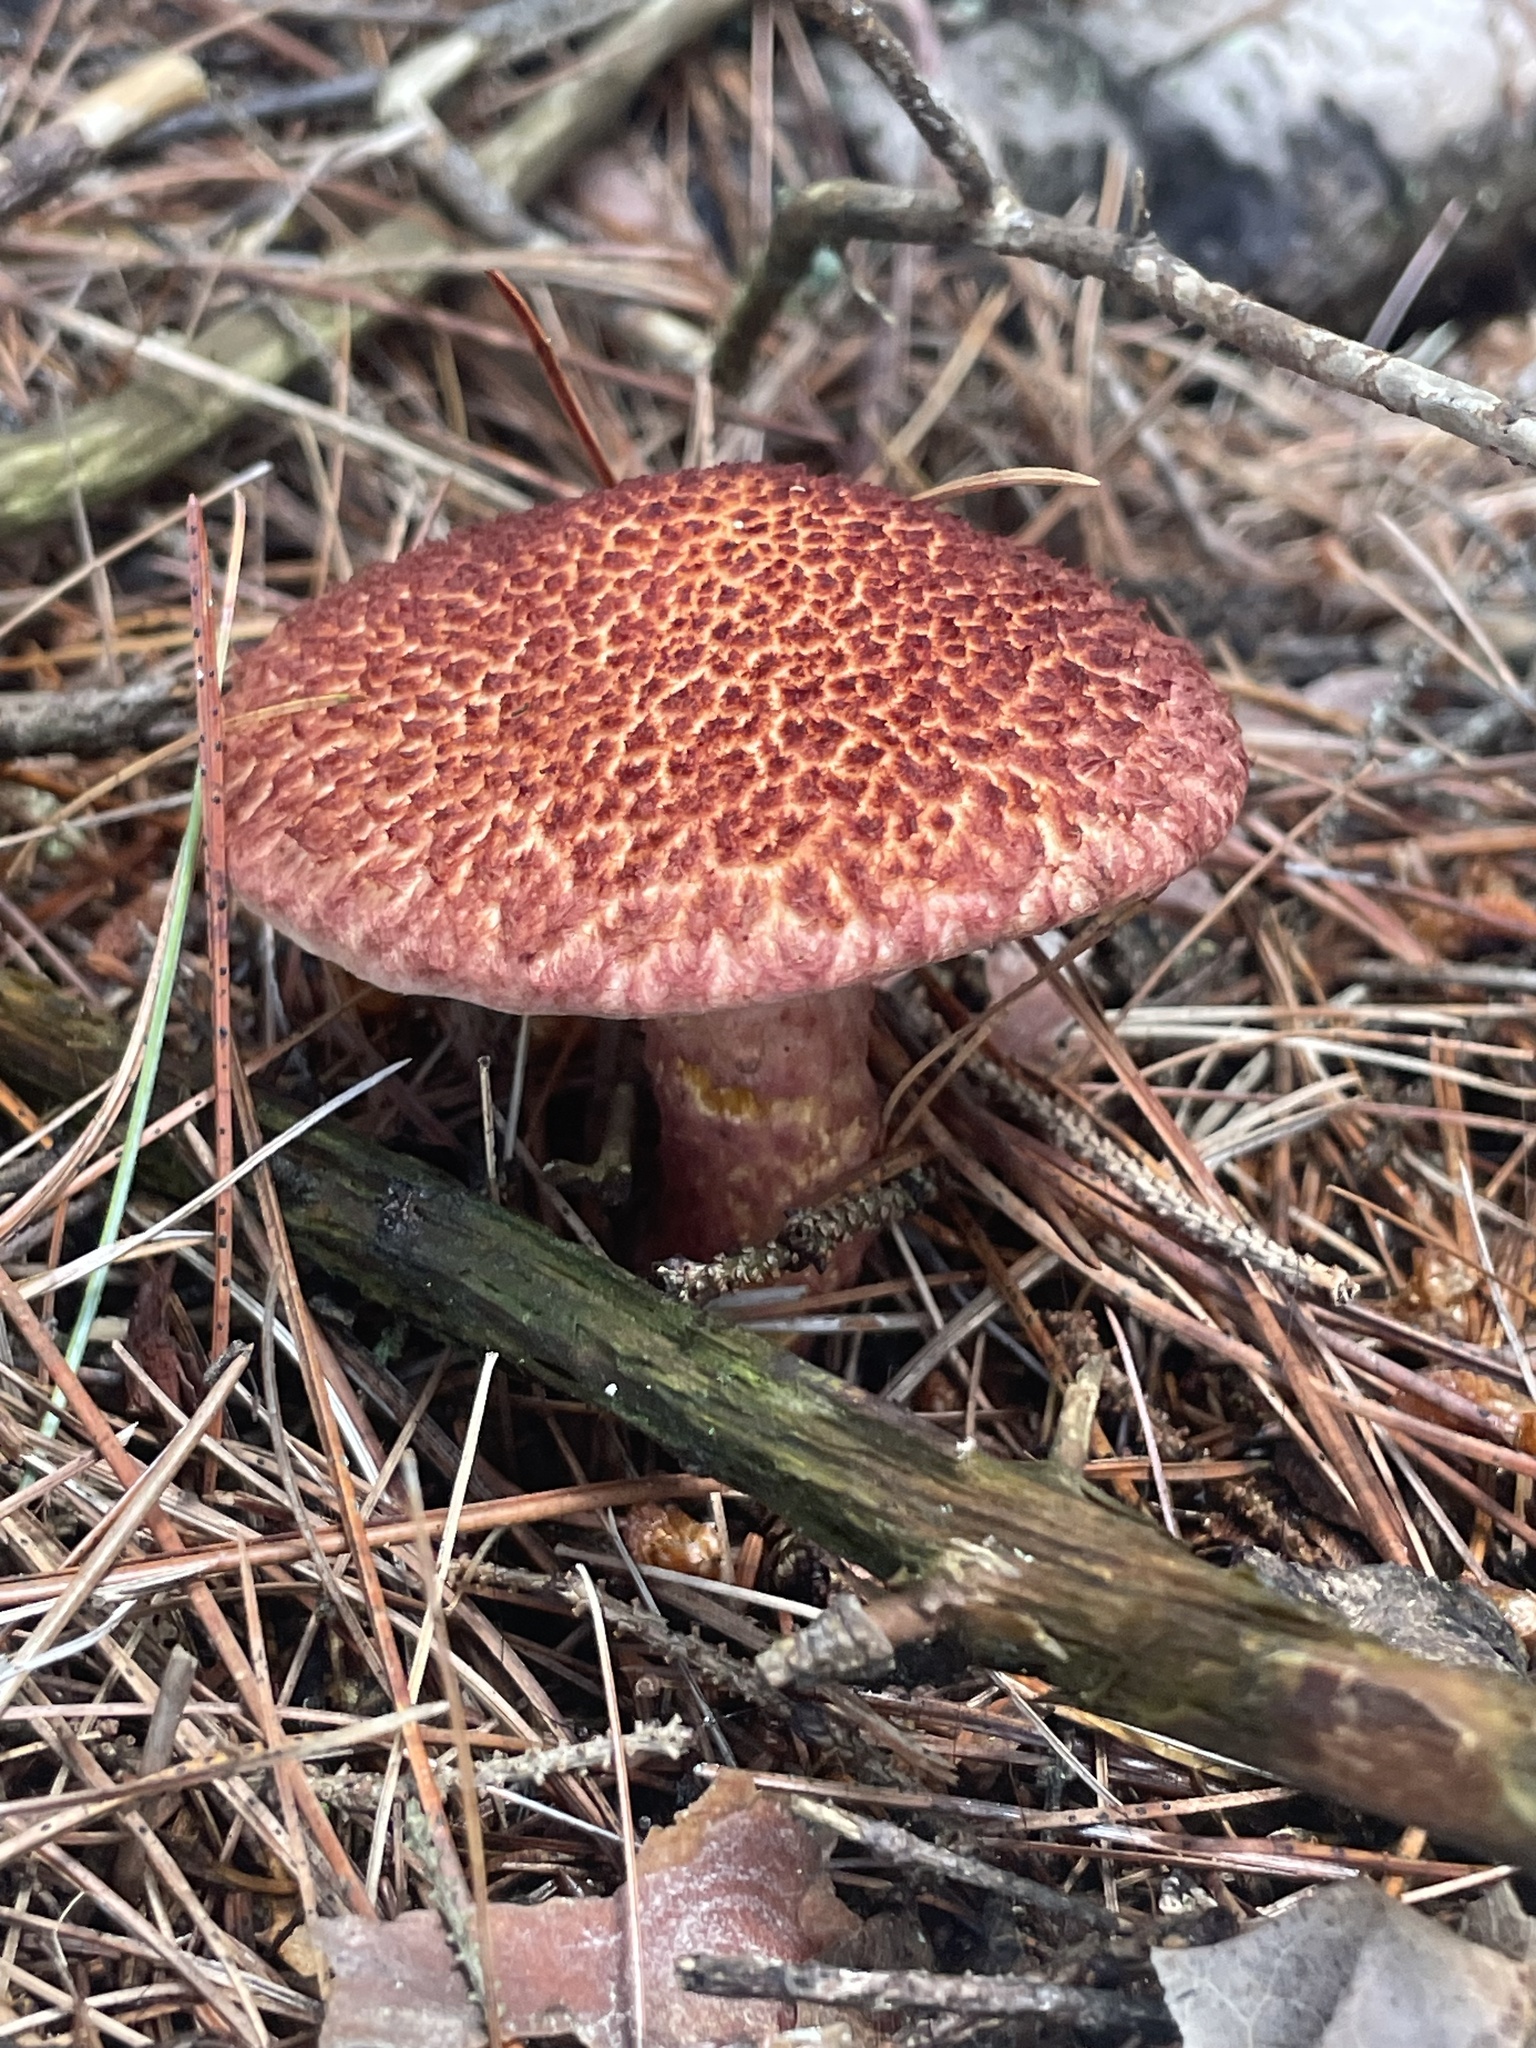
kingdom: Fungi
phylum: Basidiomycota
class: Agaricomycetes
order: Boletales
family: Suillaceae
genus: Suillus
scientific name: Suillus spraguei
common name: Painted suillus
